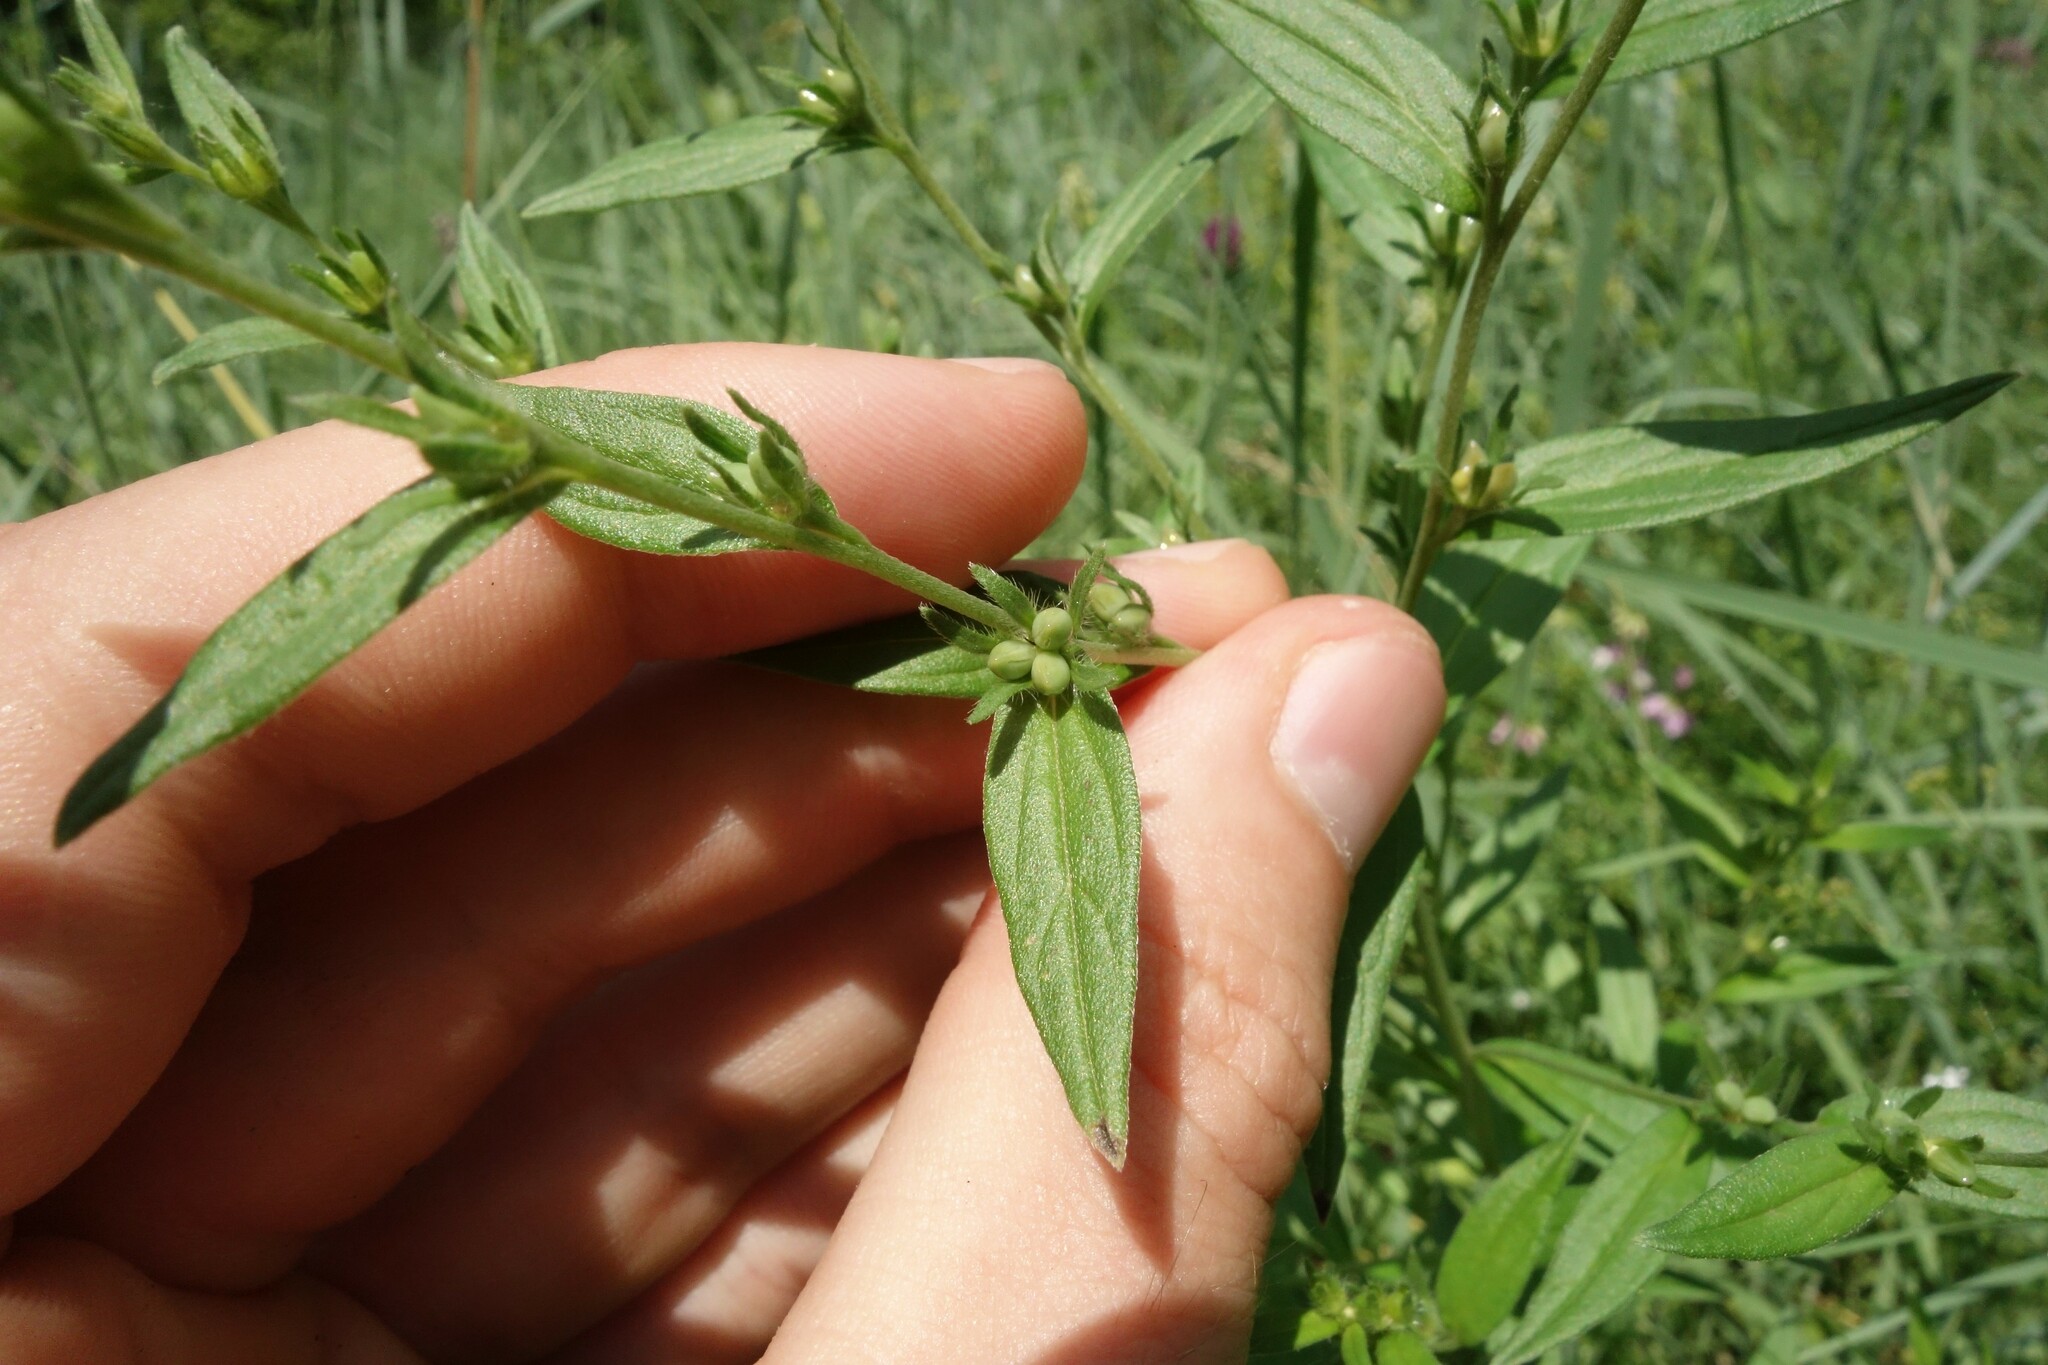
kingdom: Plantae
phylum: Tracheophyta
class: Magnoliopsida
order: Boraginales
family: Boraginaceae
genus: Lithospermum
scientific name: Lithospermum officinale
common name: Common gromwell
